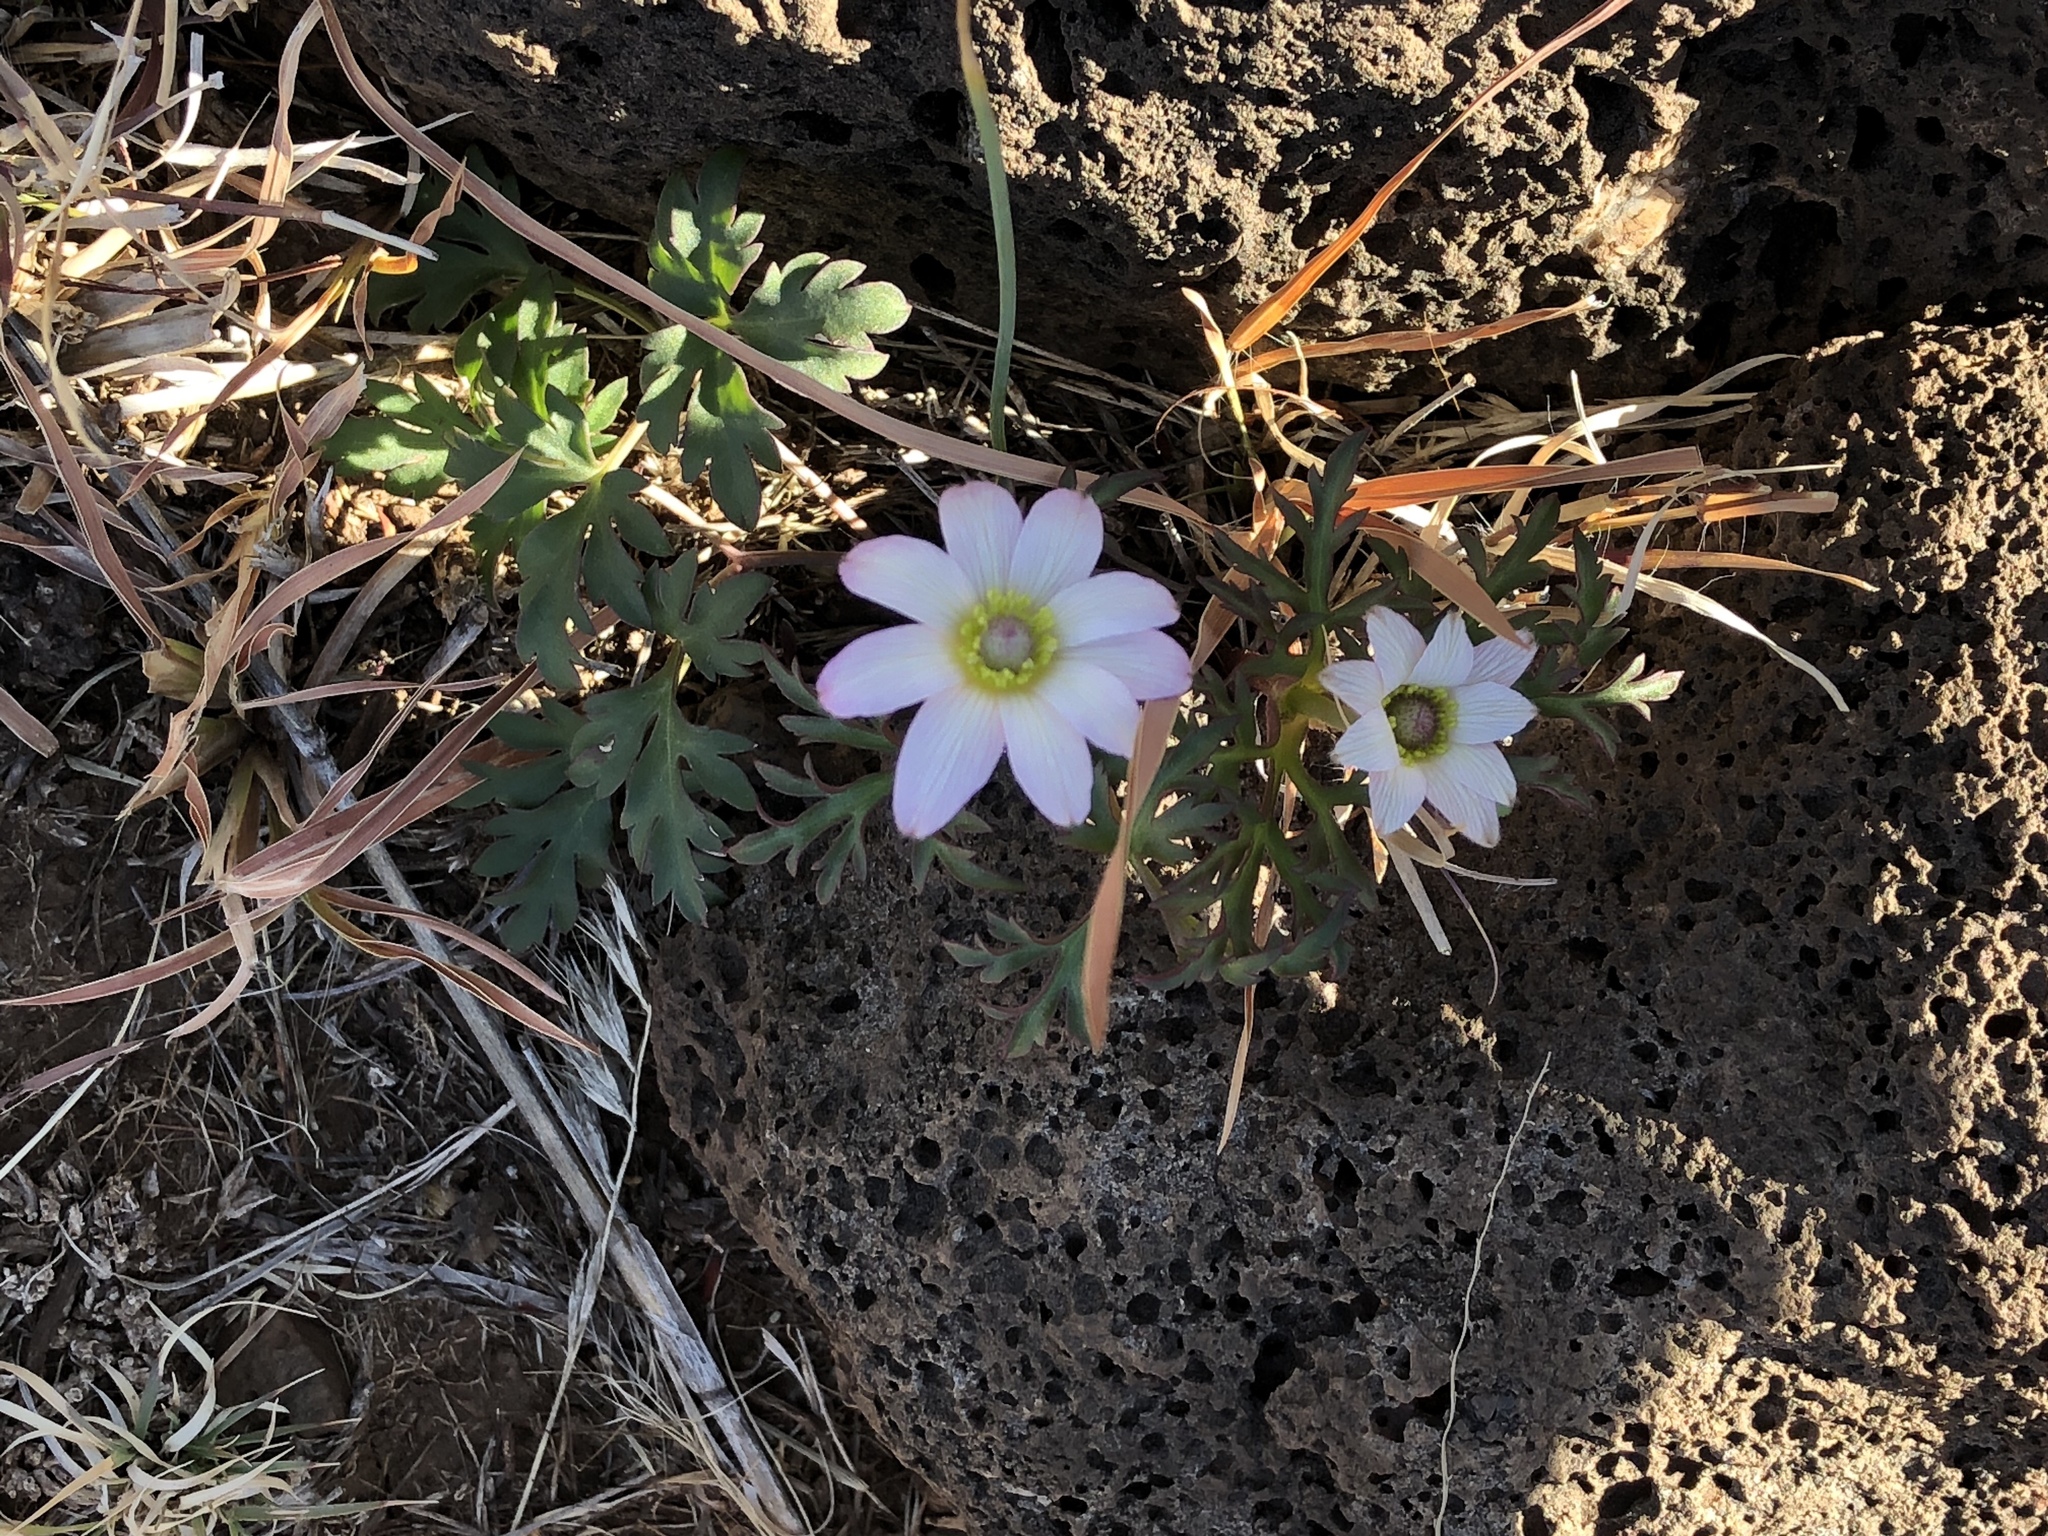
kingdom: Plantae
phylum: Tracheophyta
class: Magnoliopsida
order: Ranunculales
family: Ranunculaceae
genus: Anemone
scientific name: Anemone tuberosa
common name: Desert anemone
